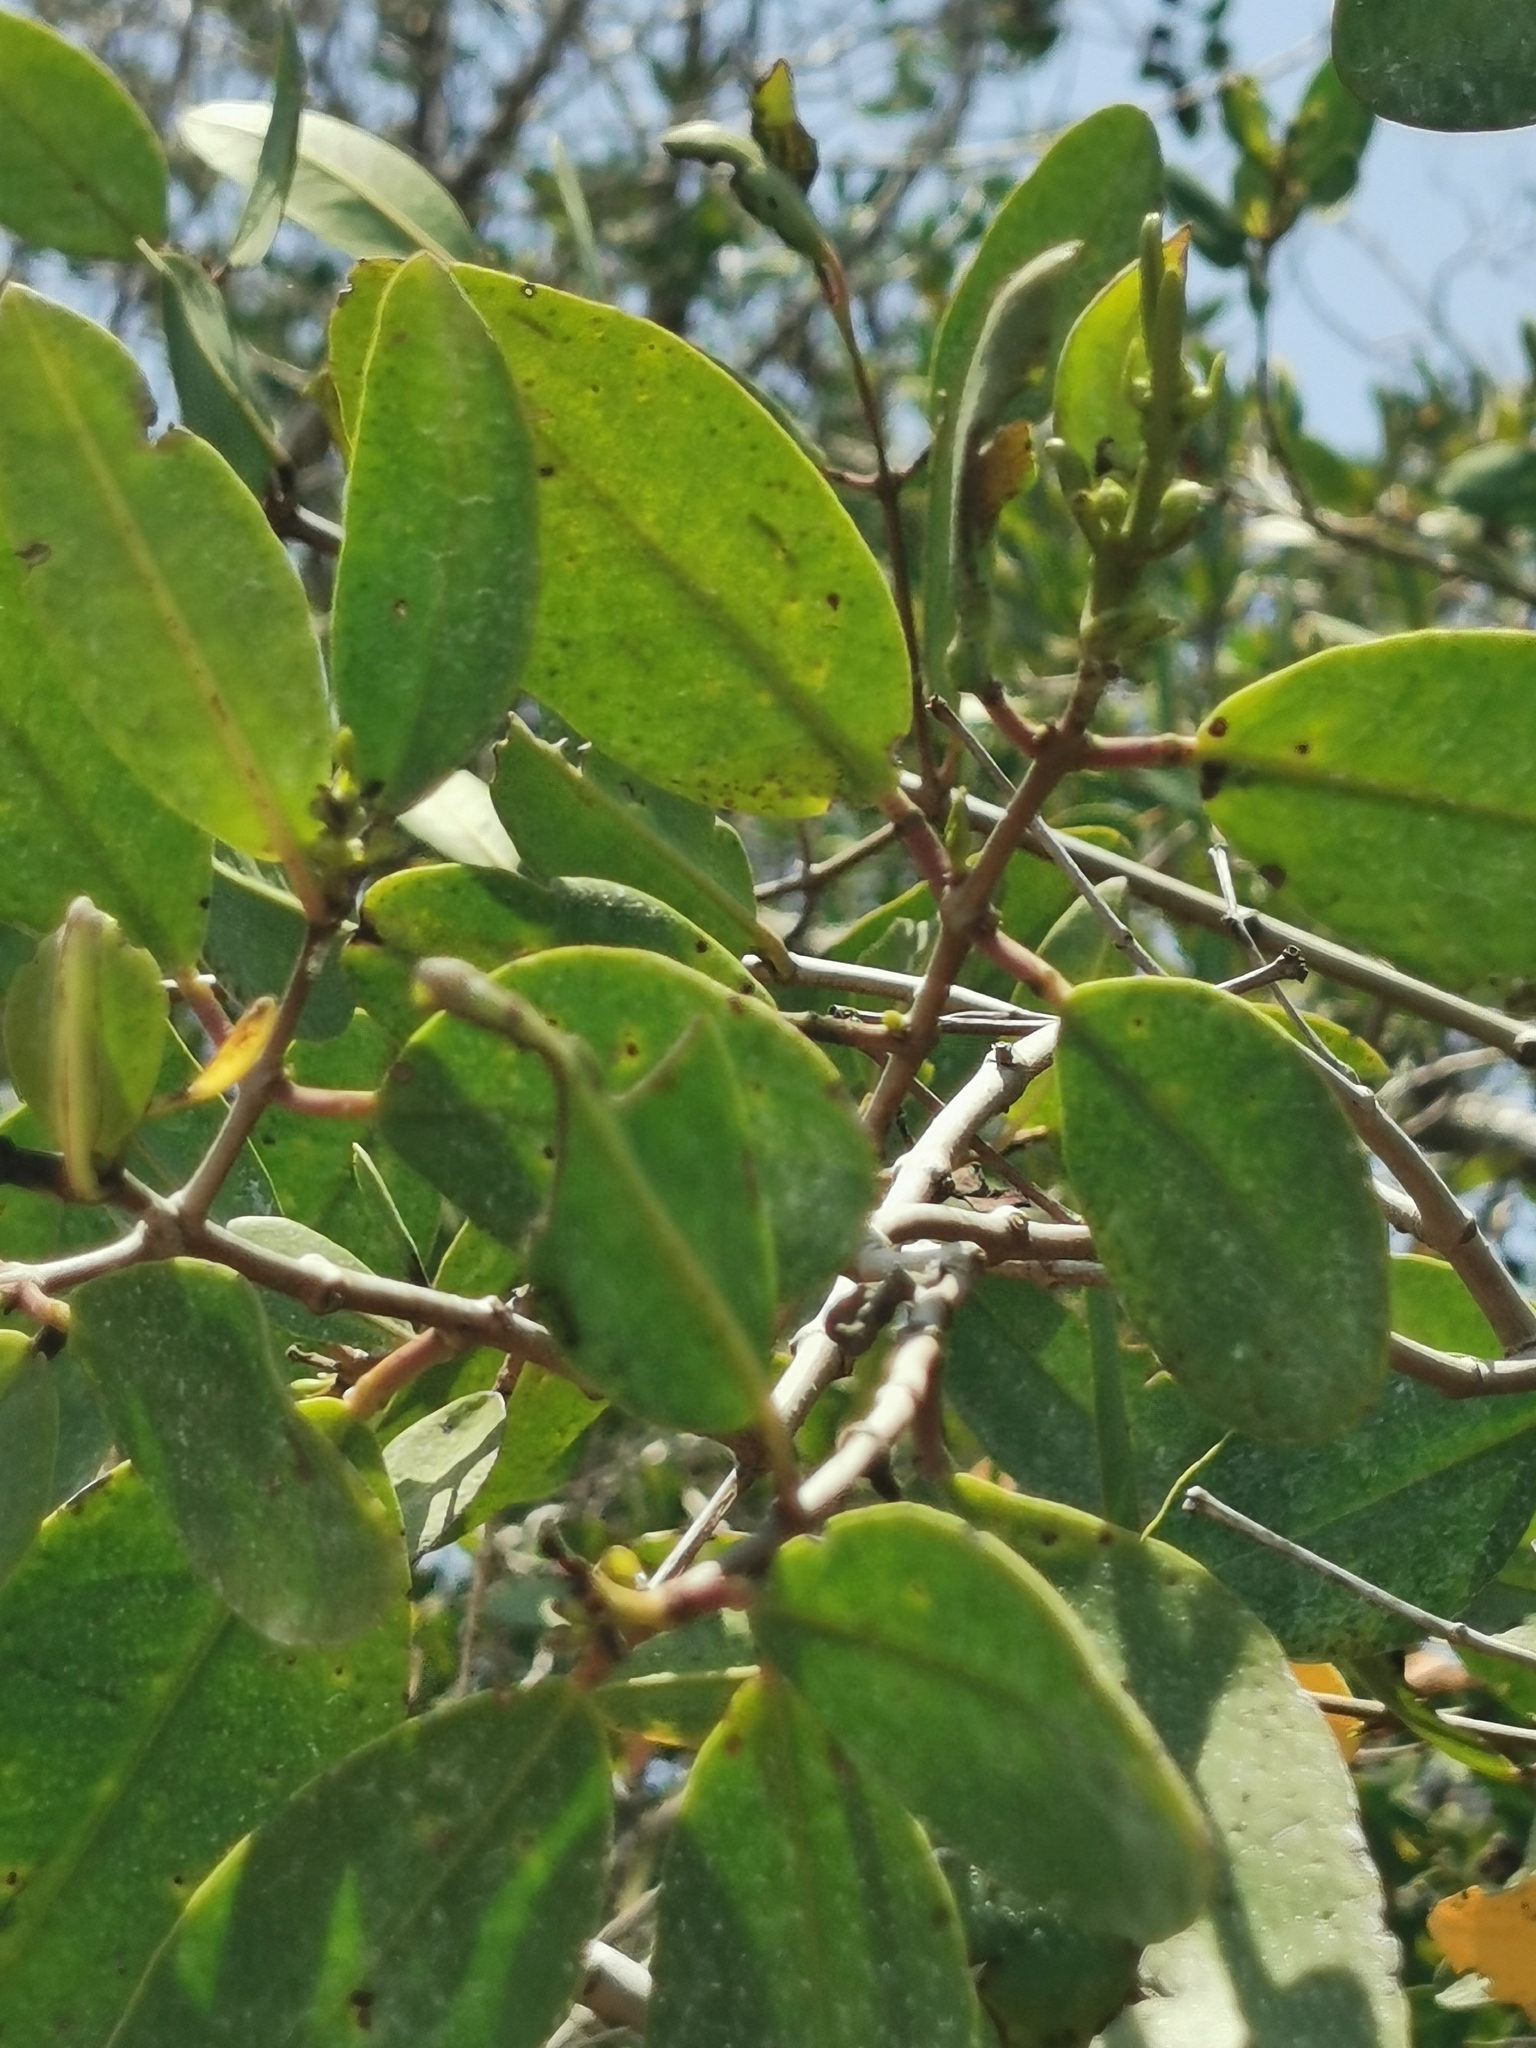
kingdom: Plantae
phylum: Tracheophyta
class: Magnoliopsida
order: Myrtales
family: Combretaceae
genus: Laguncularia
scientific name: Laguncularia racemosa
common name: White mangrove
